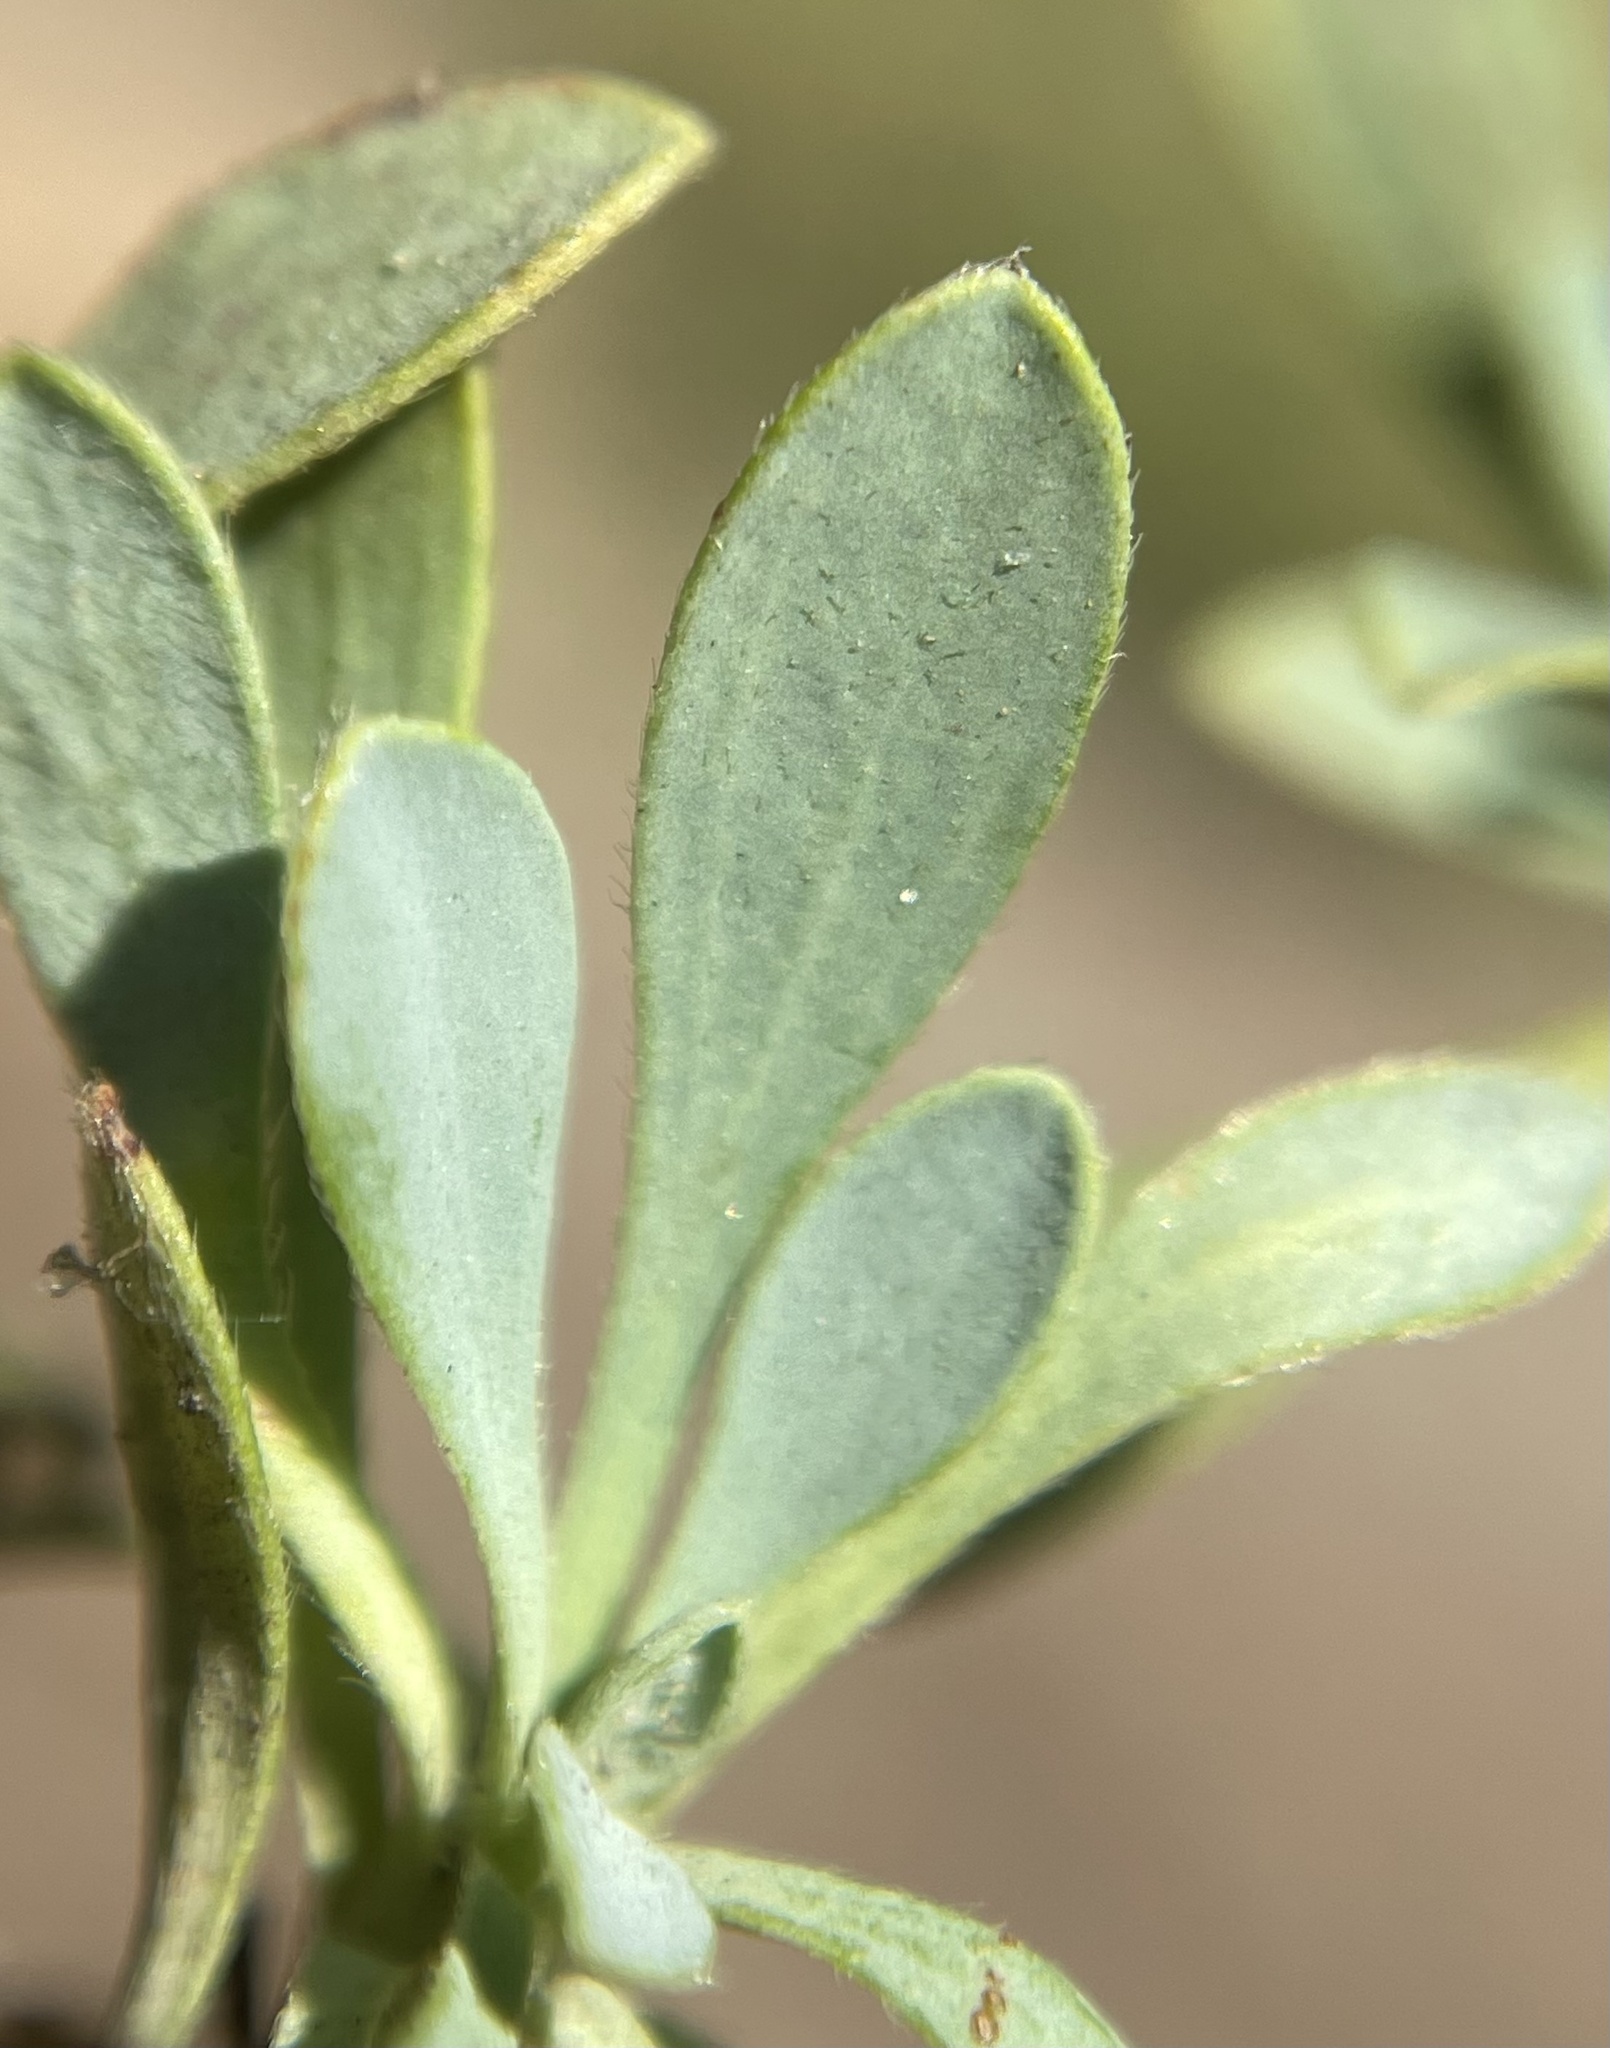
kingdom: Plantae
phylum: Tracheophyta
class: Magnoliopsida
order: Rosales
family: Rosaceae
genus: Petrophytum
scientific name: Petrophytum cinerascens
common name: Chelan rockmat
